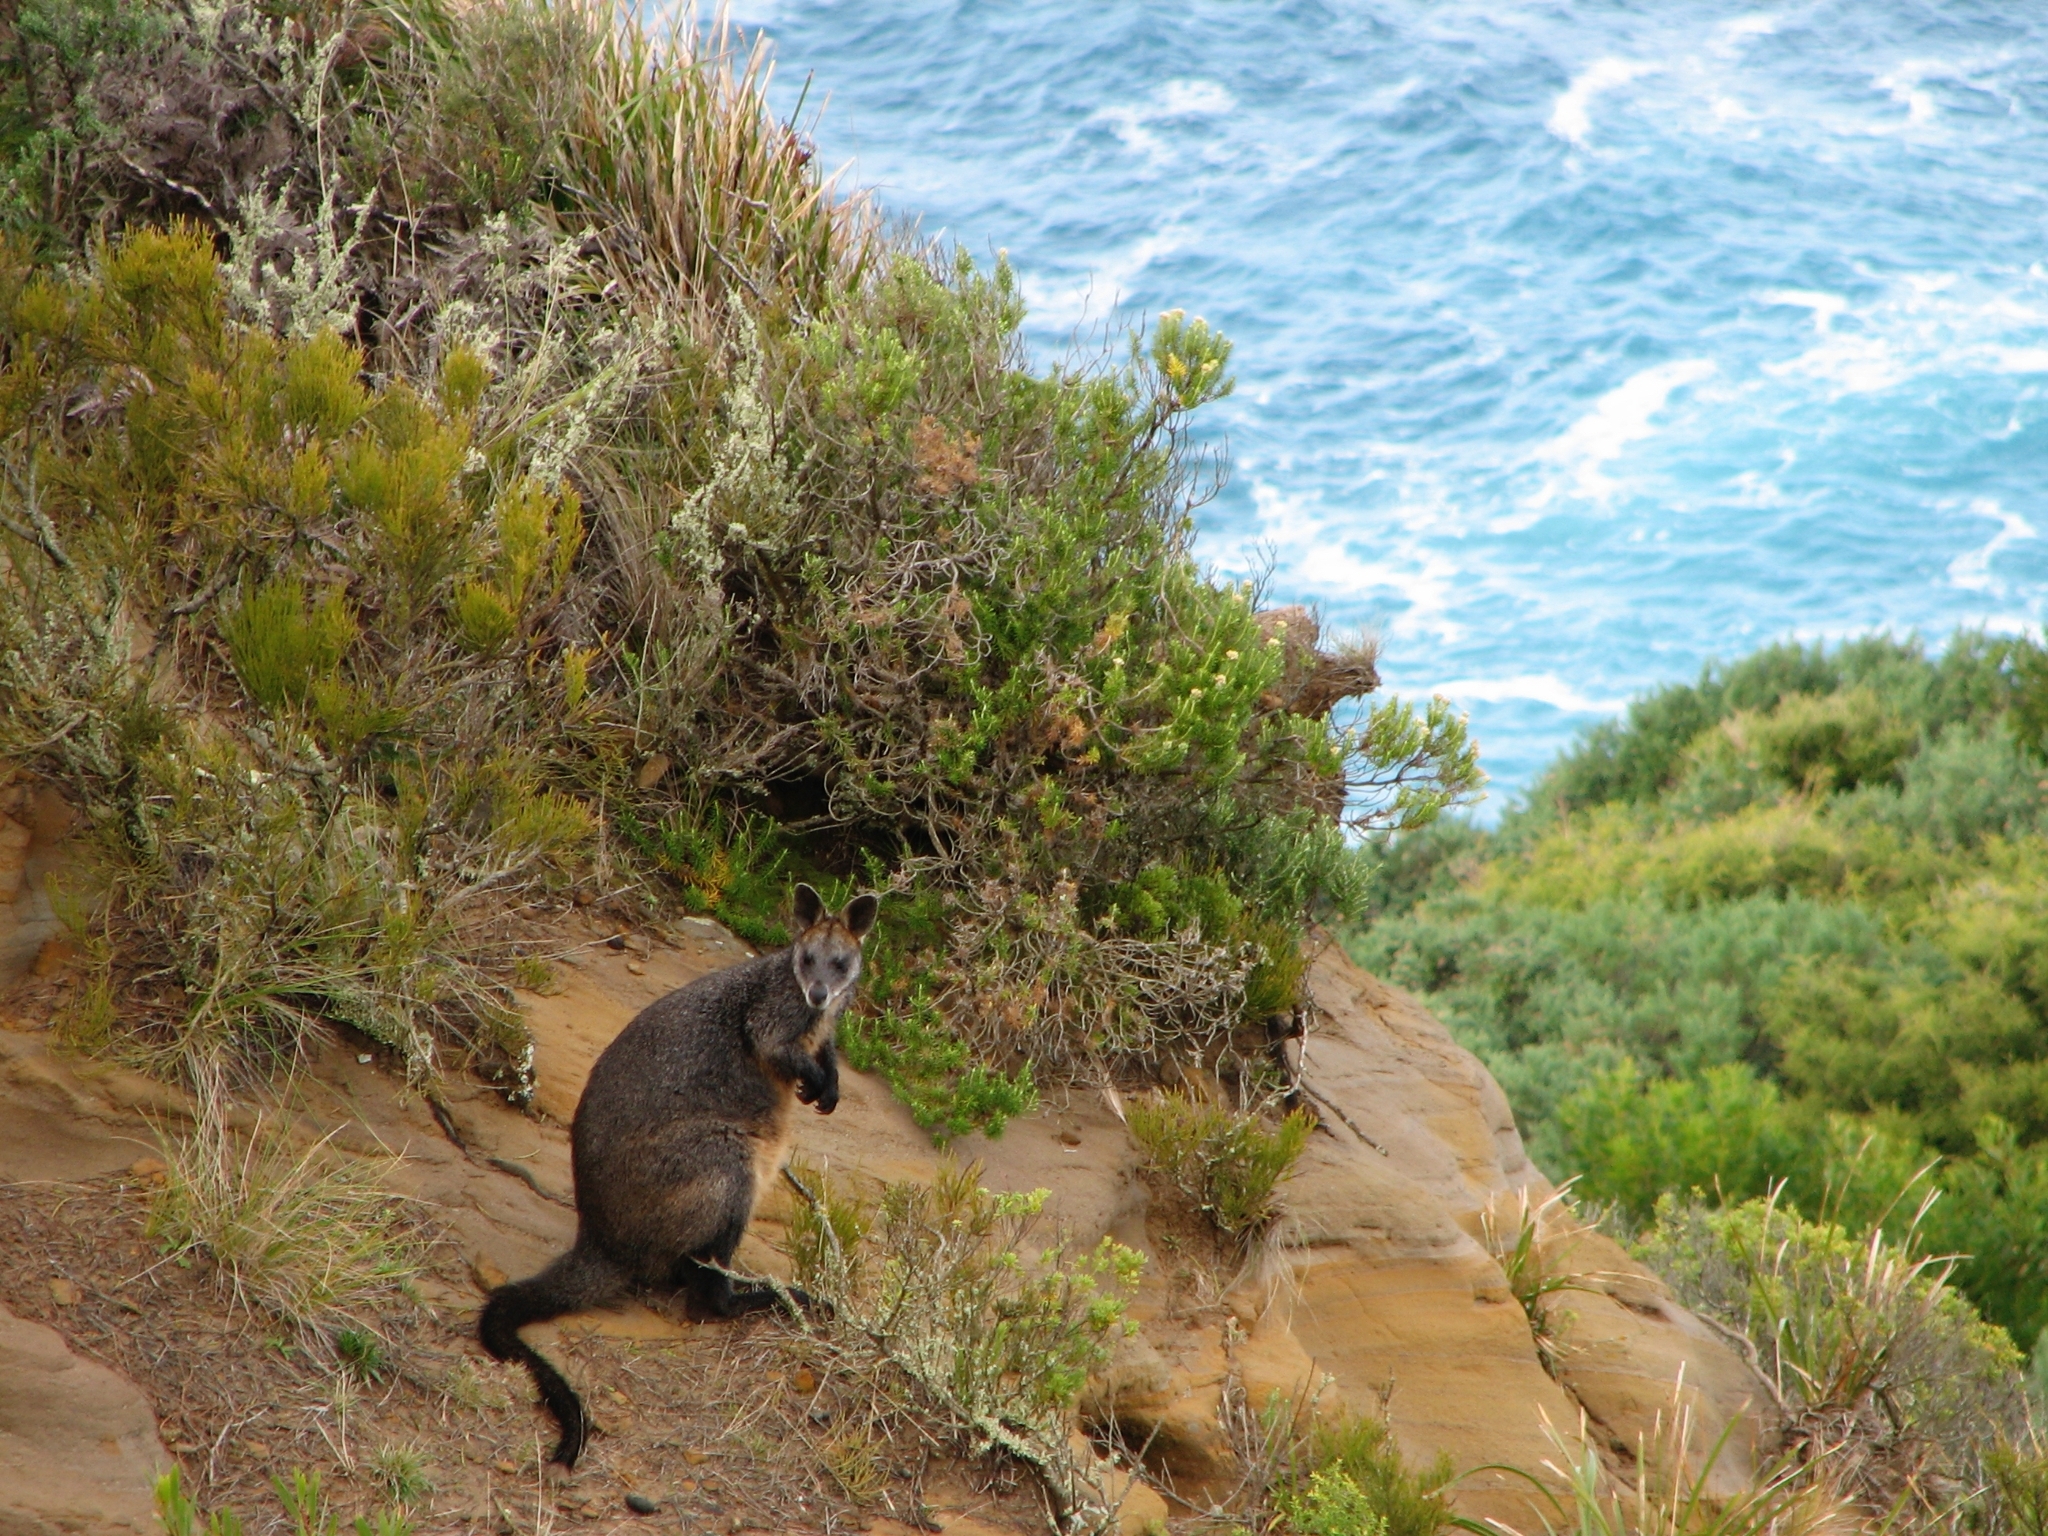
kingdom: Animalia
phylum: Chordata
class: Mammalia
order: Diprotodontia
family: Macropodidae
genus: Wallabia
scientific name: Wallabia bicolor
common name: Swamp wallaby
